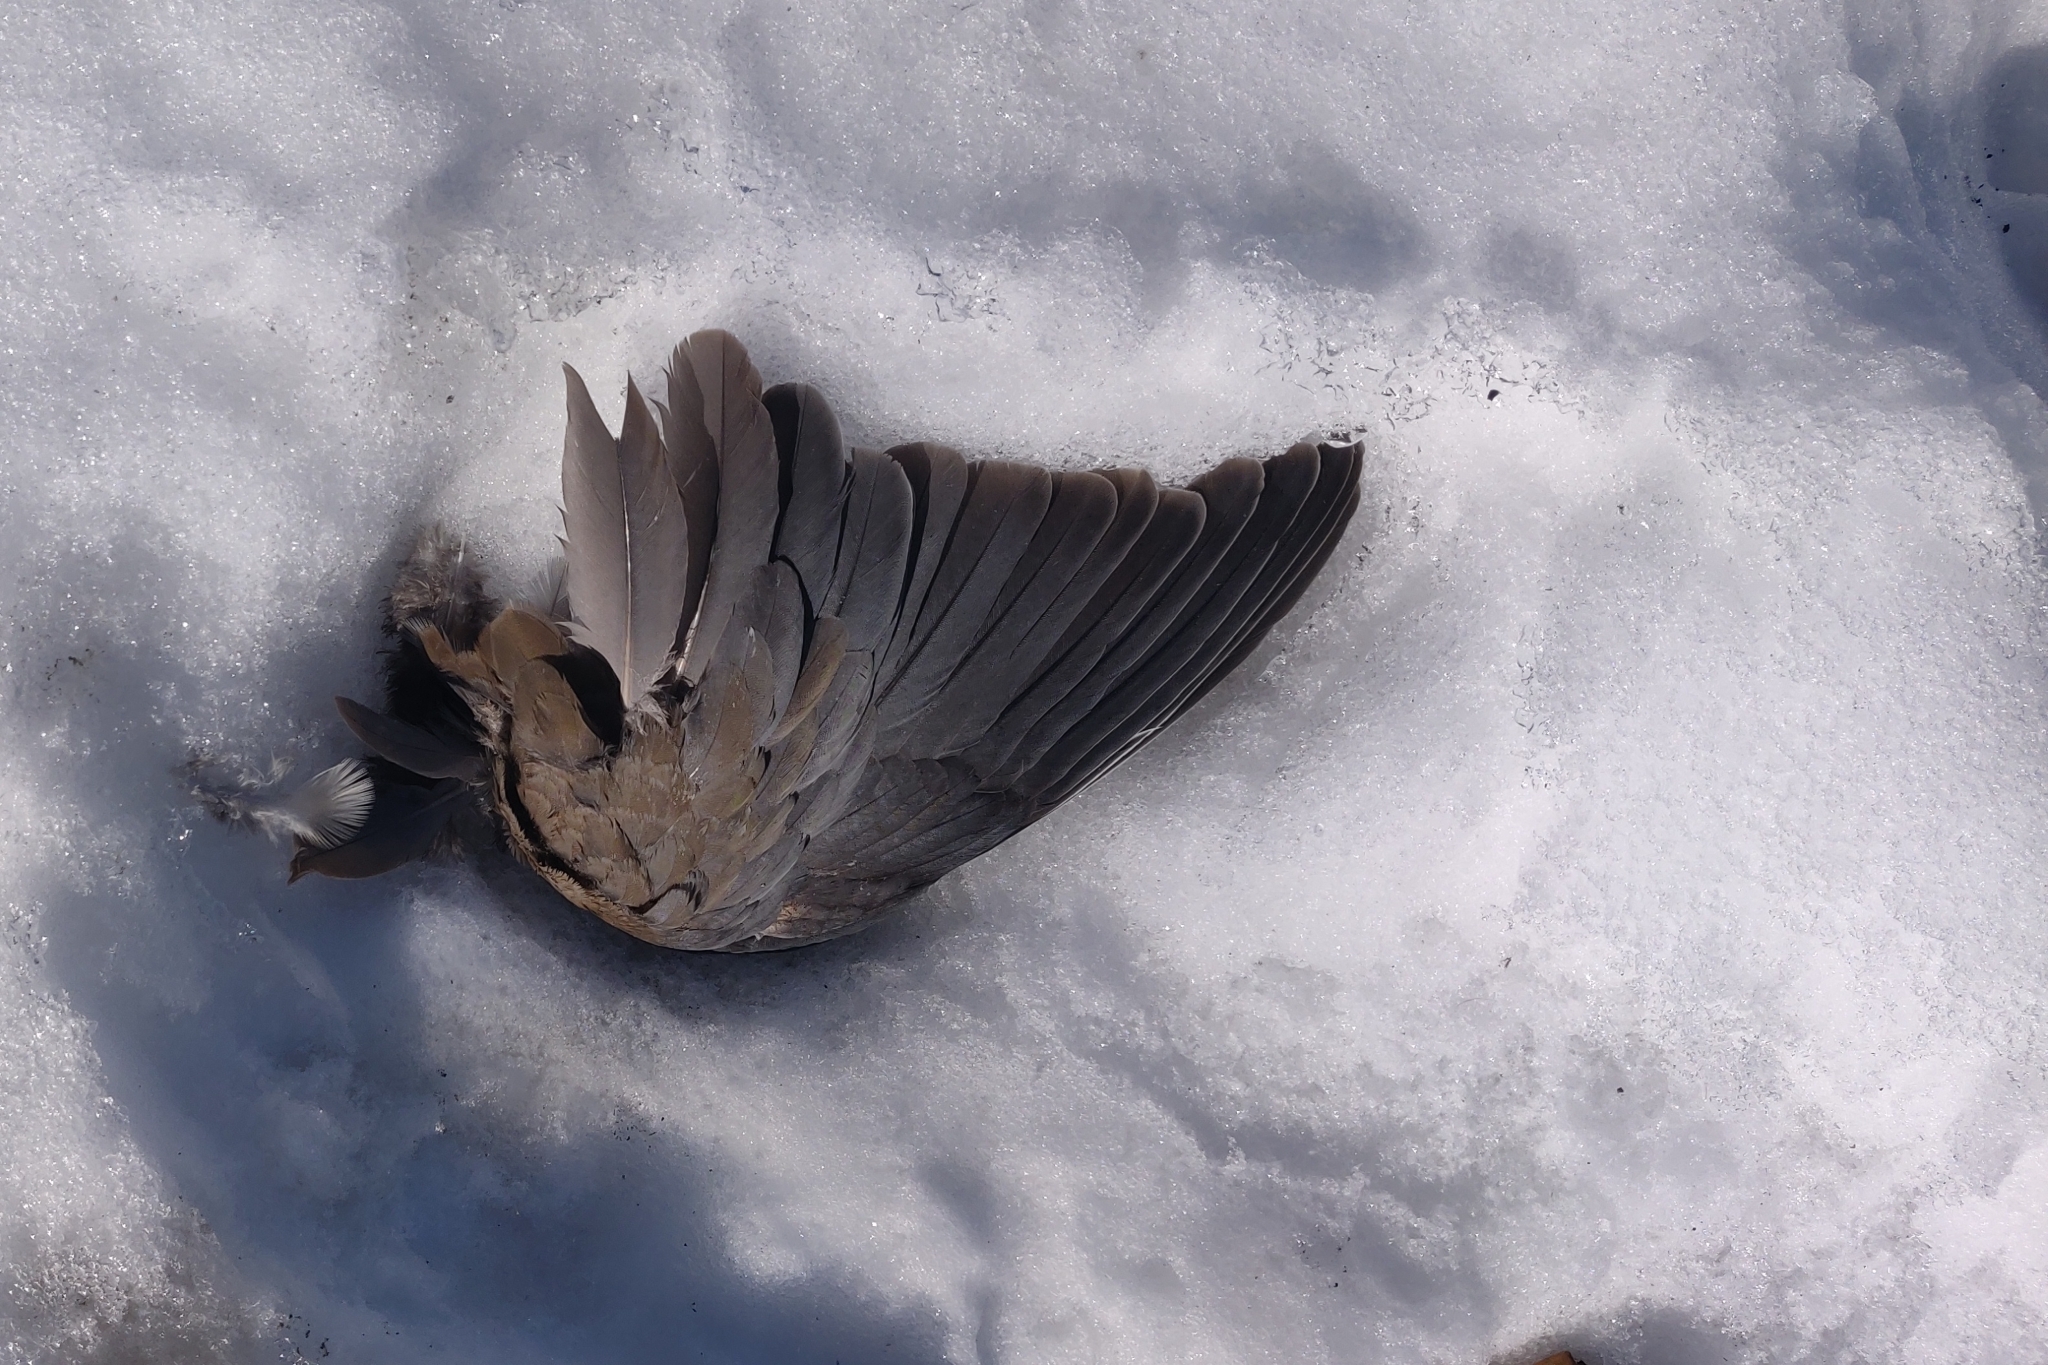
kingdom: Animalia
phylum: Chordata
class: Aves
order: Columbiformes
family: Columbidae
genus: Zenaida
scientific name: Zenaida macroura
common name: Mourning dove
